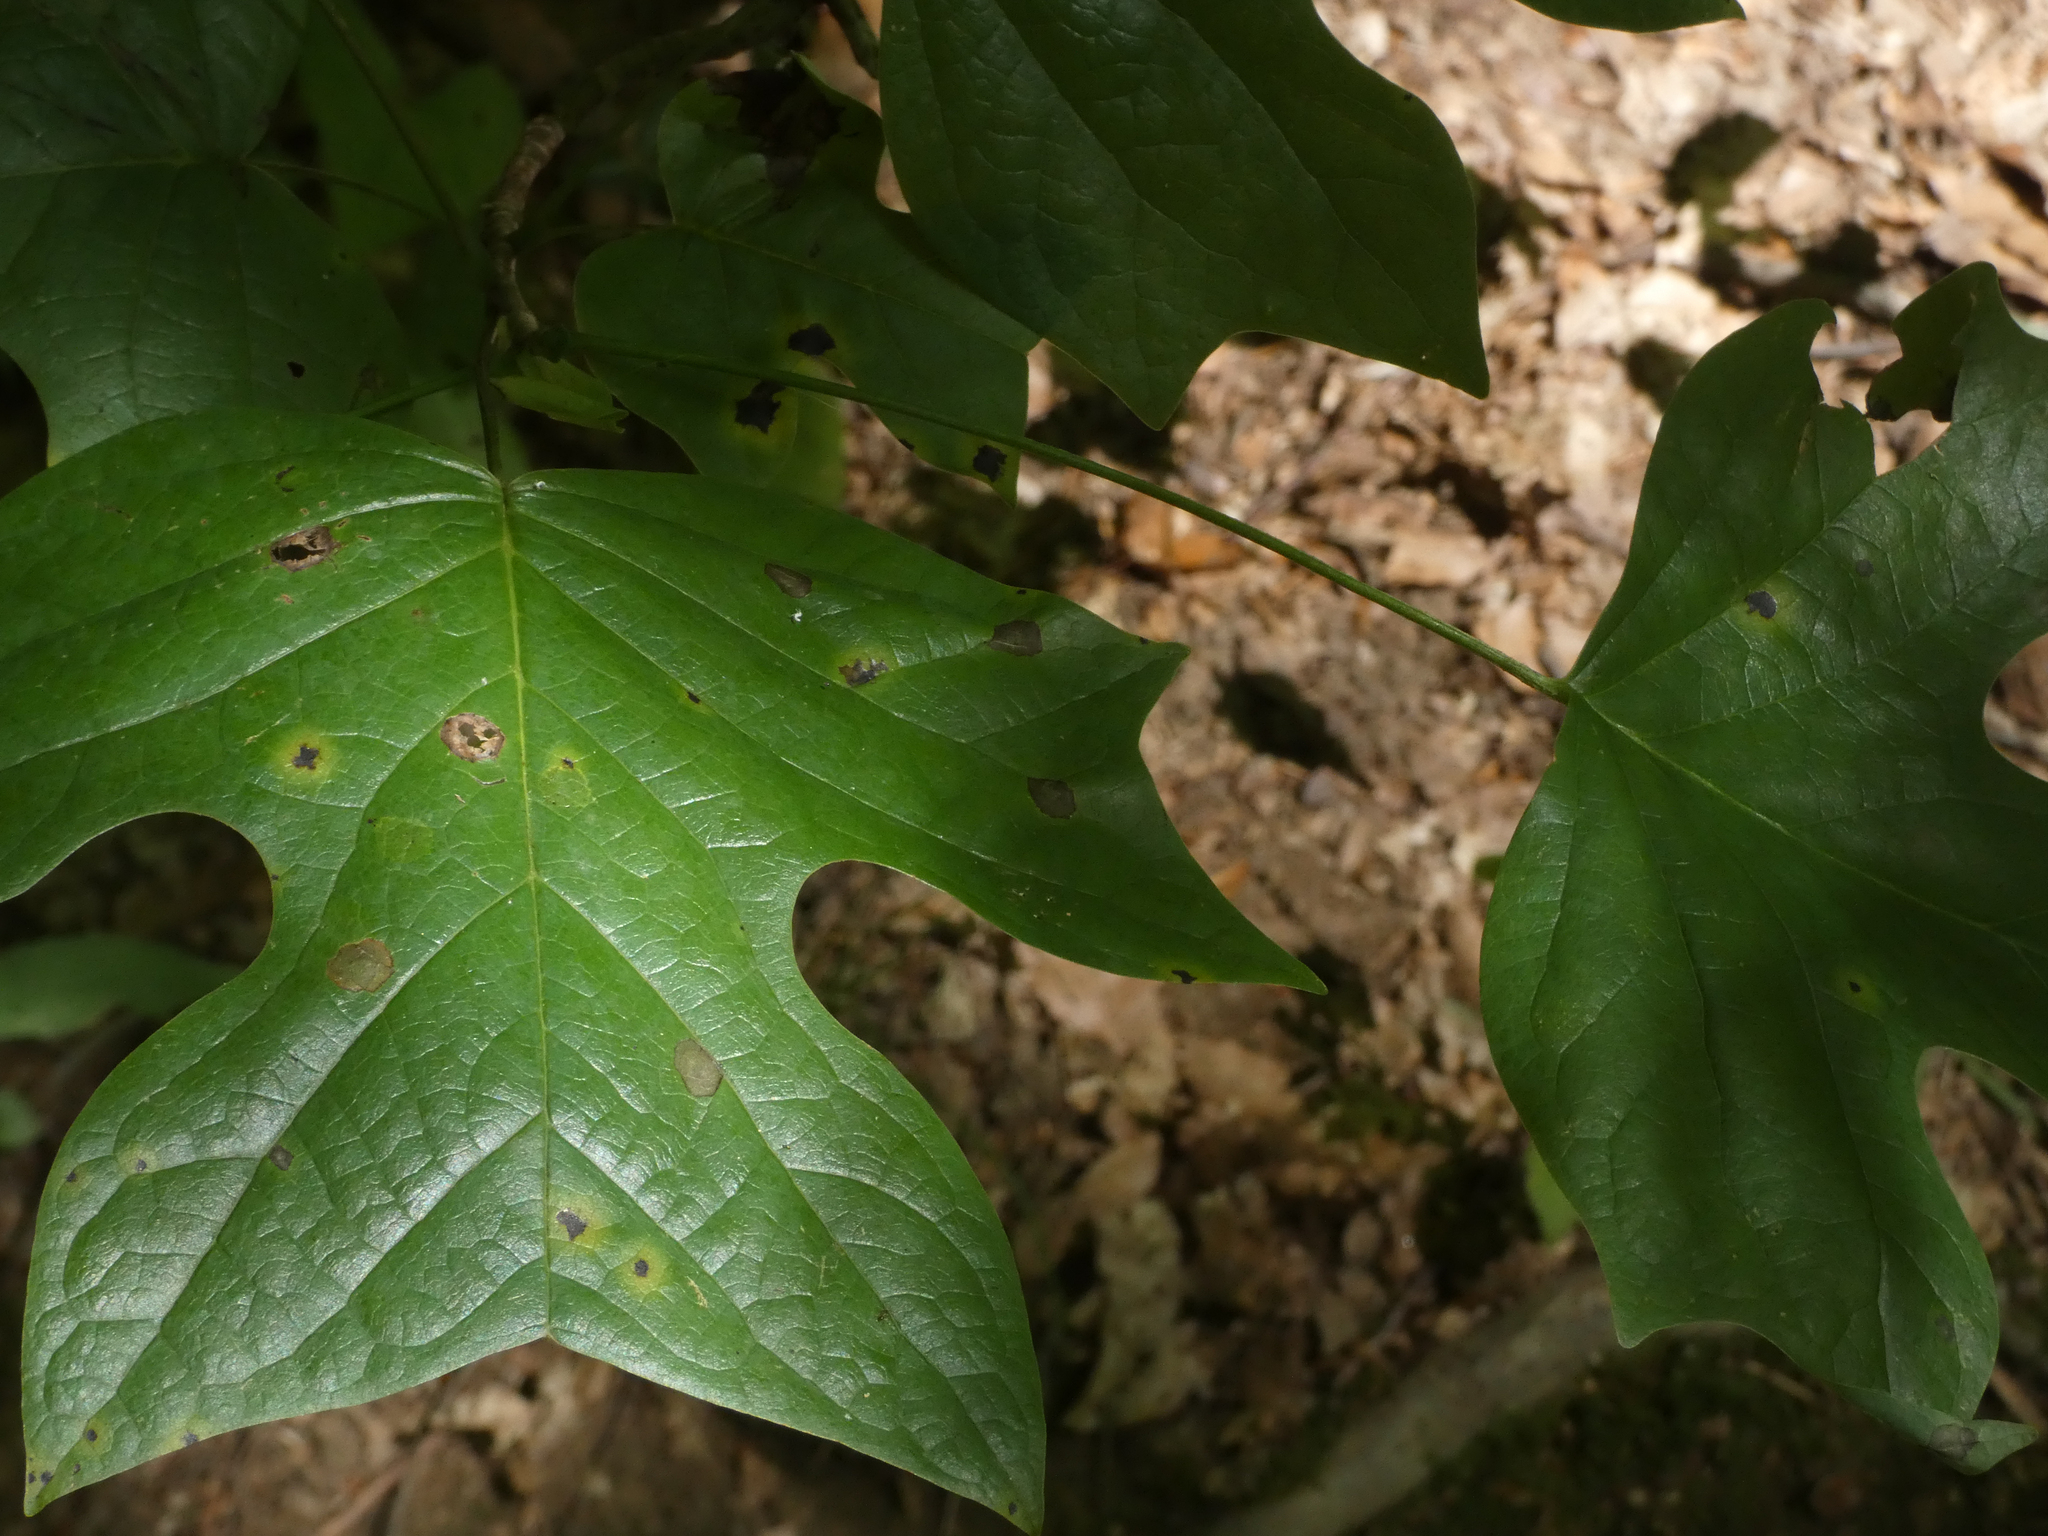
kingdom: Plantae
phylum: Tracheophyta
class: Magnoliopsida
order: Magnoliales
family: Magnoliaceae
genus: Liriodendron
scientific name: Liriodendron tulipifera
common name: Tulip tree
